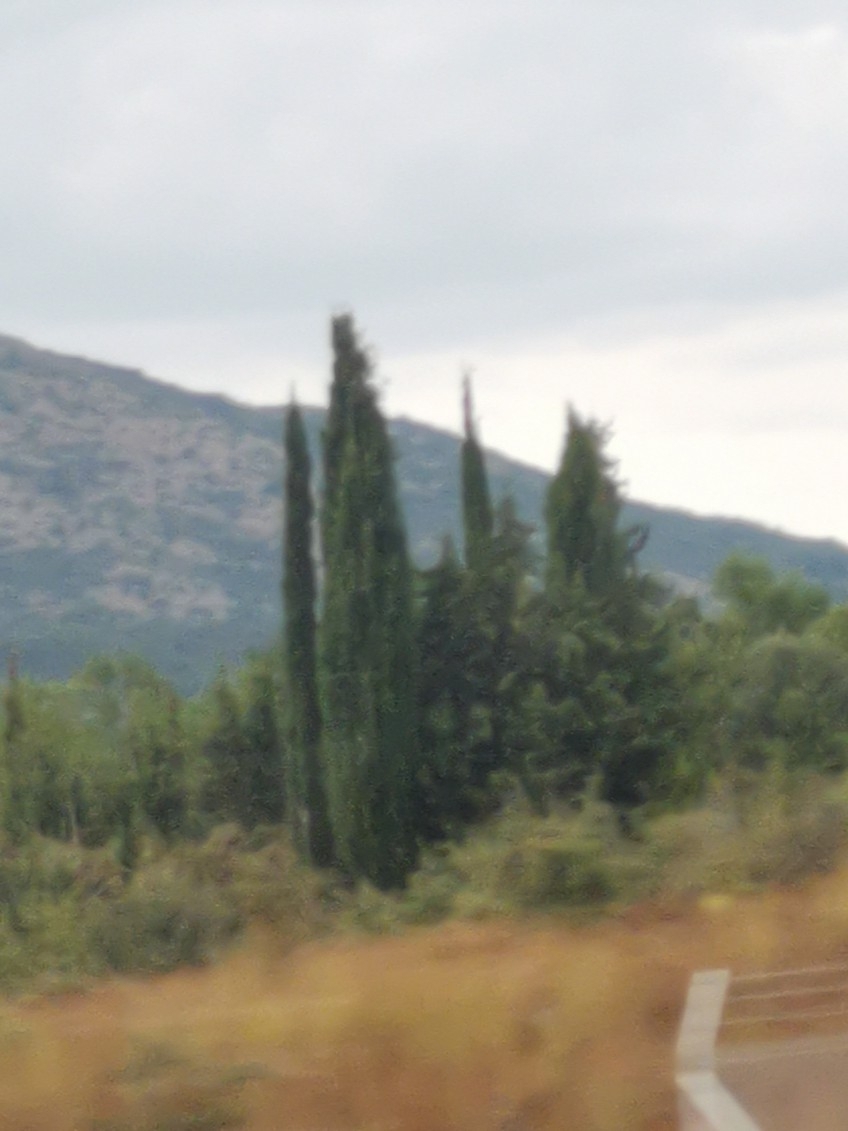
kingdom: Plantae
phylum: Tracheophyta
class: Pinopsida
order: Pinales
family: Cupressaceae
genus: Cupressus
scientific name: Cupressus sempervirens
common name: Italian cypress
